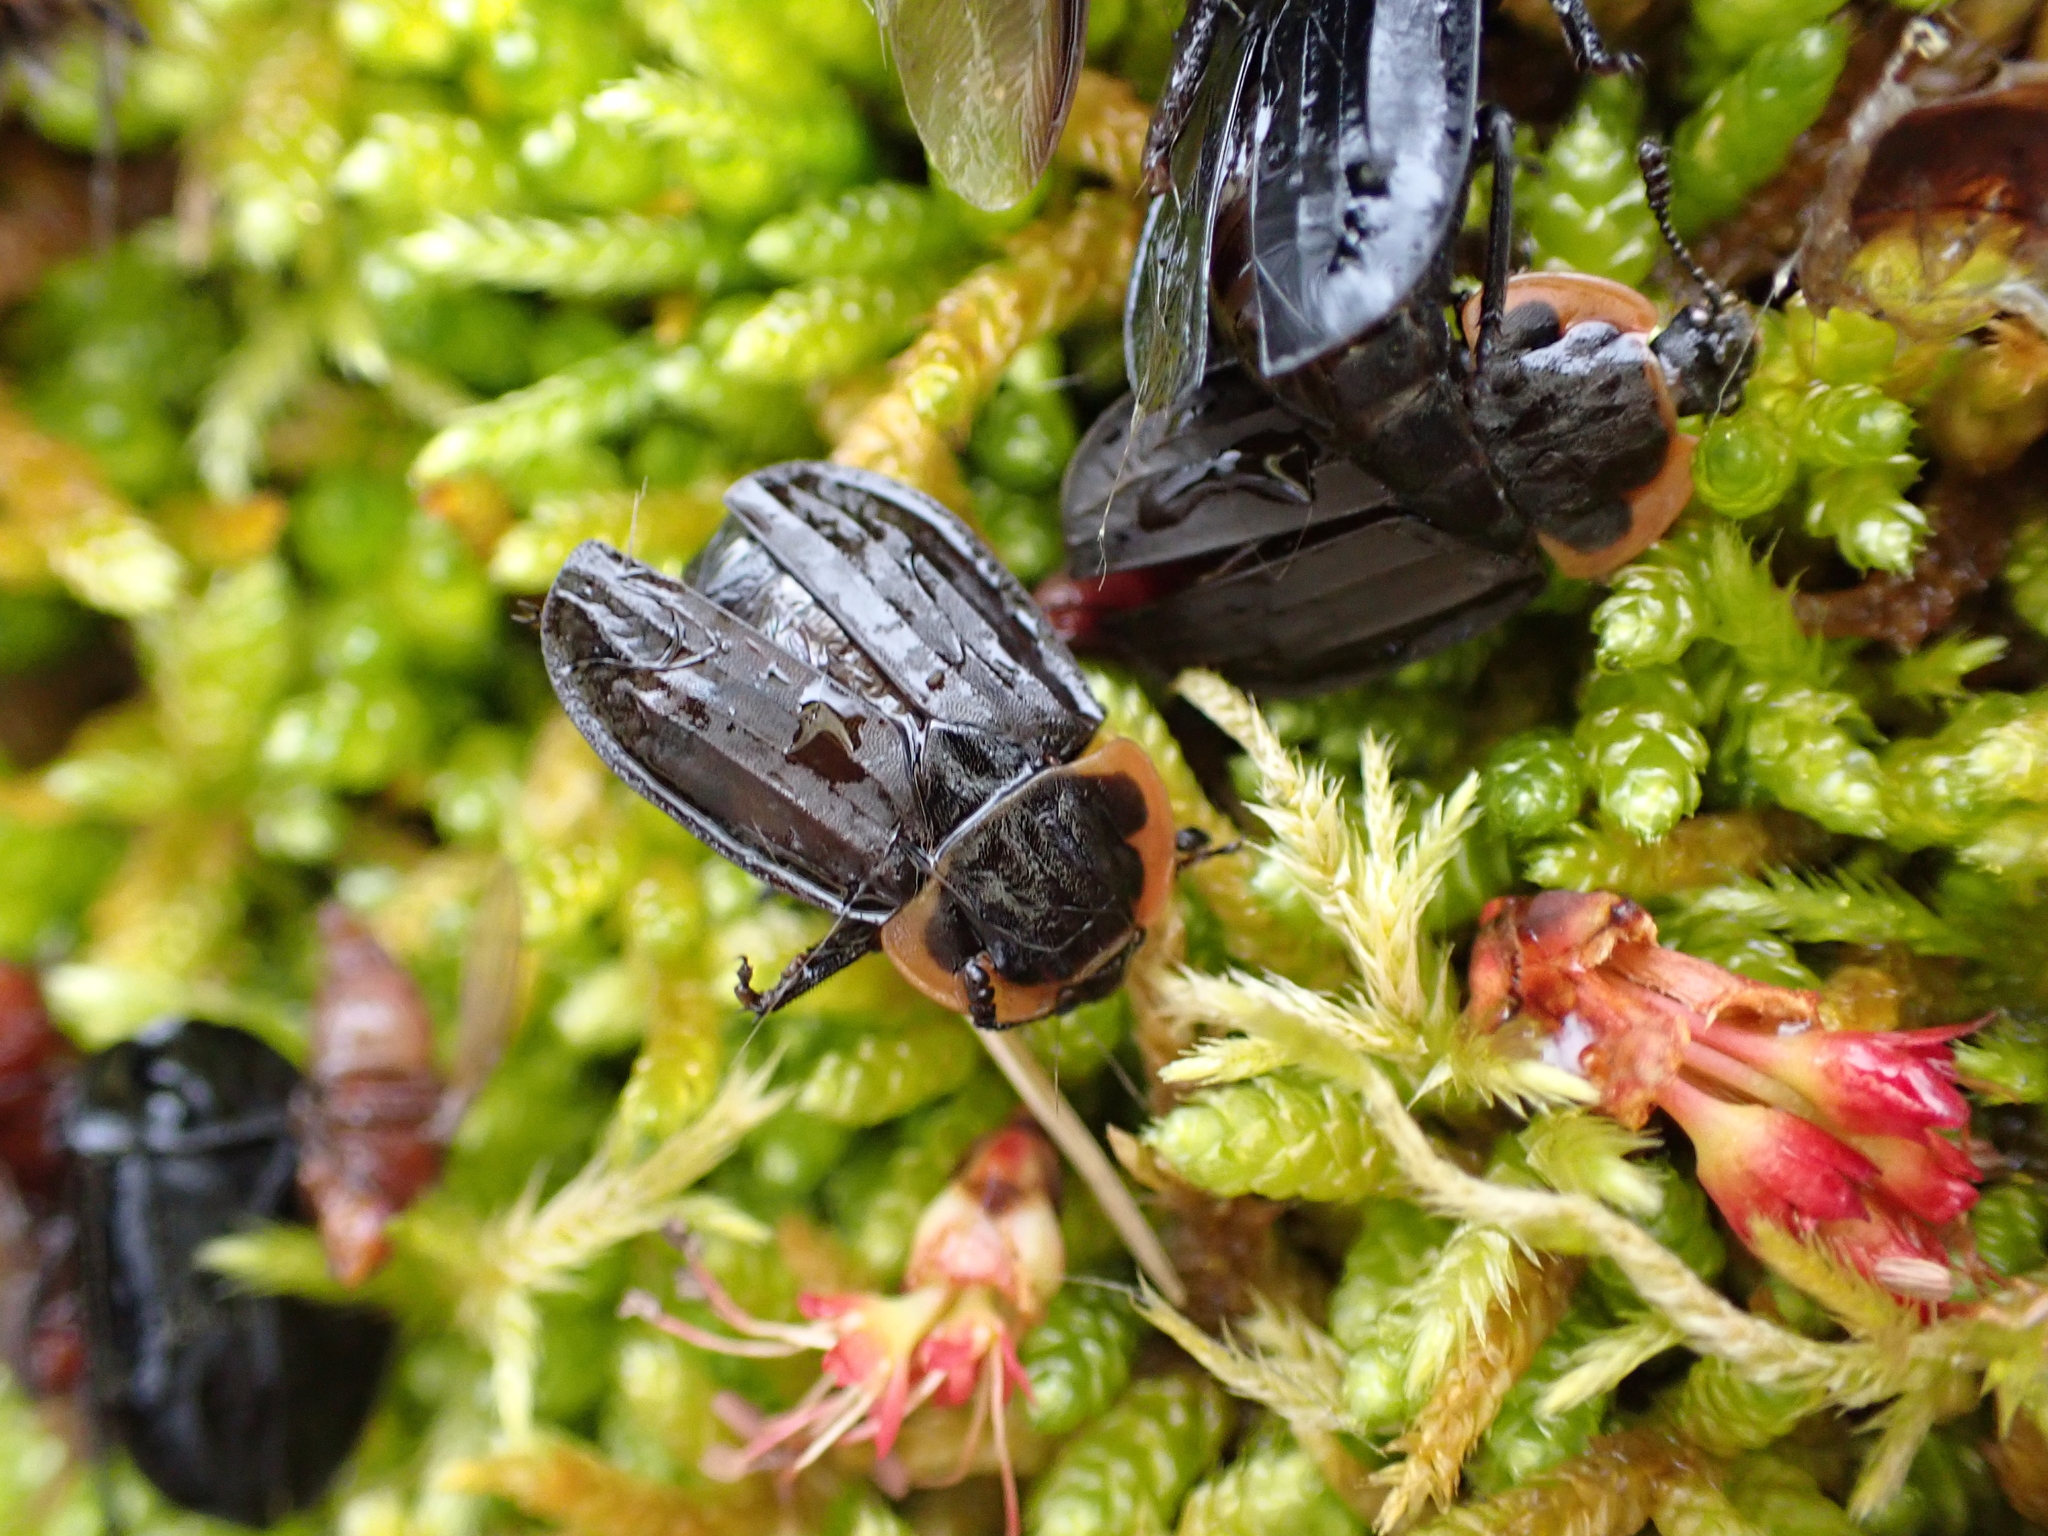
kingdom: Animalia
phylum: Arthropoda
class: Insecta
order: Coleoptera
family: Staphylinidae
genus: Oiceoptoma
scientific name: Oiceoptoma noveboracense
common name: Margined carrion beetle
